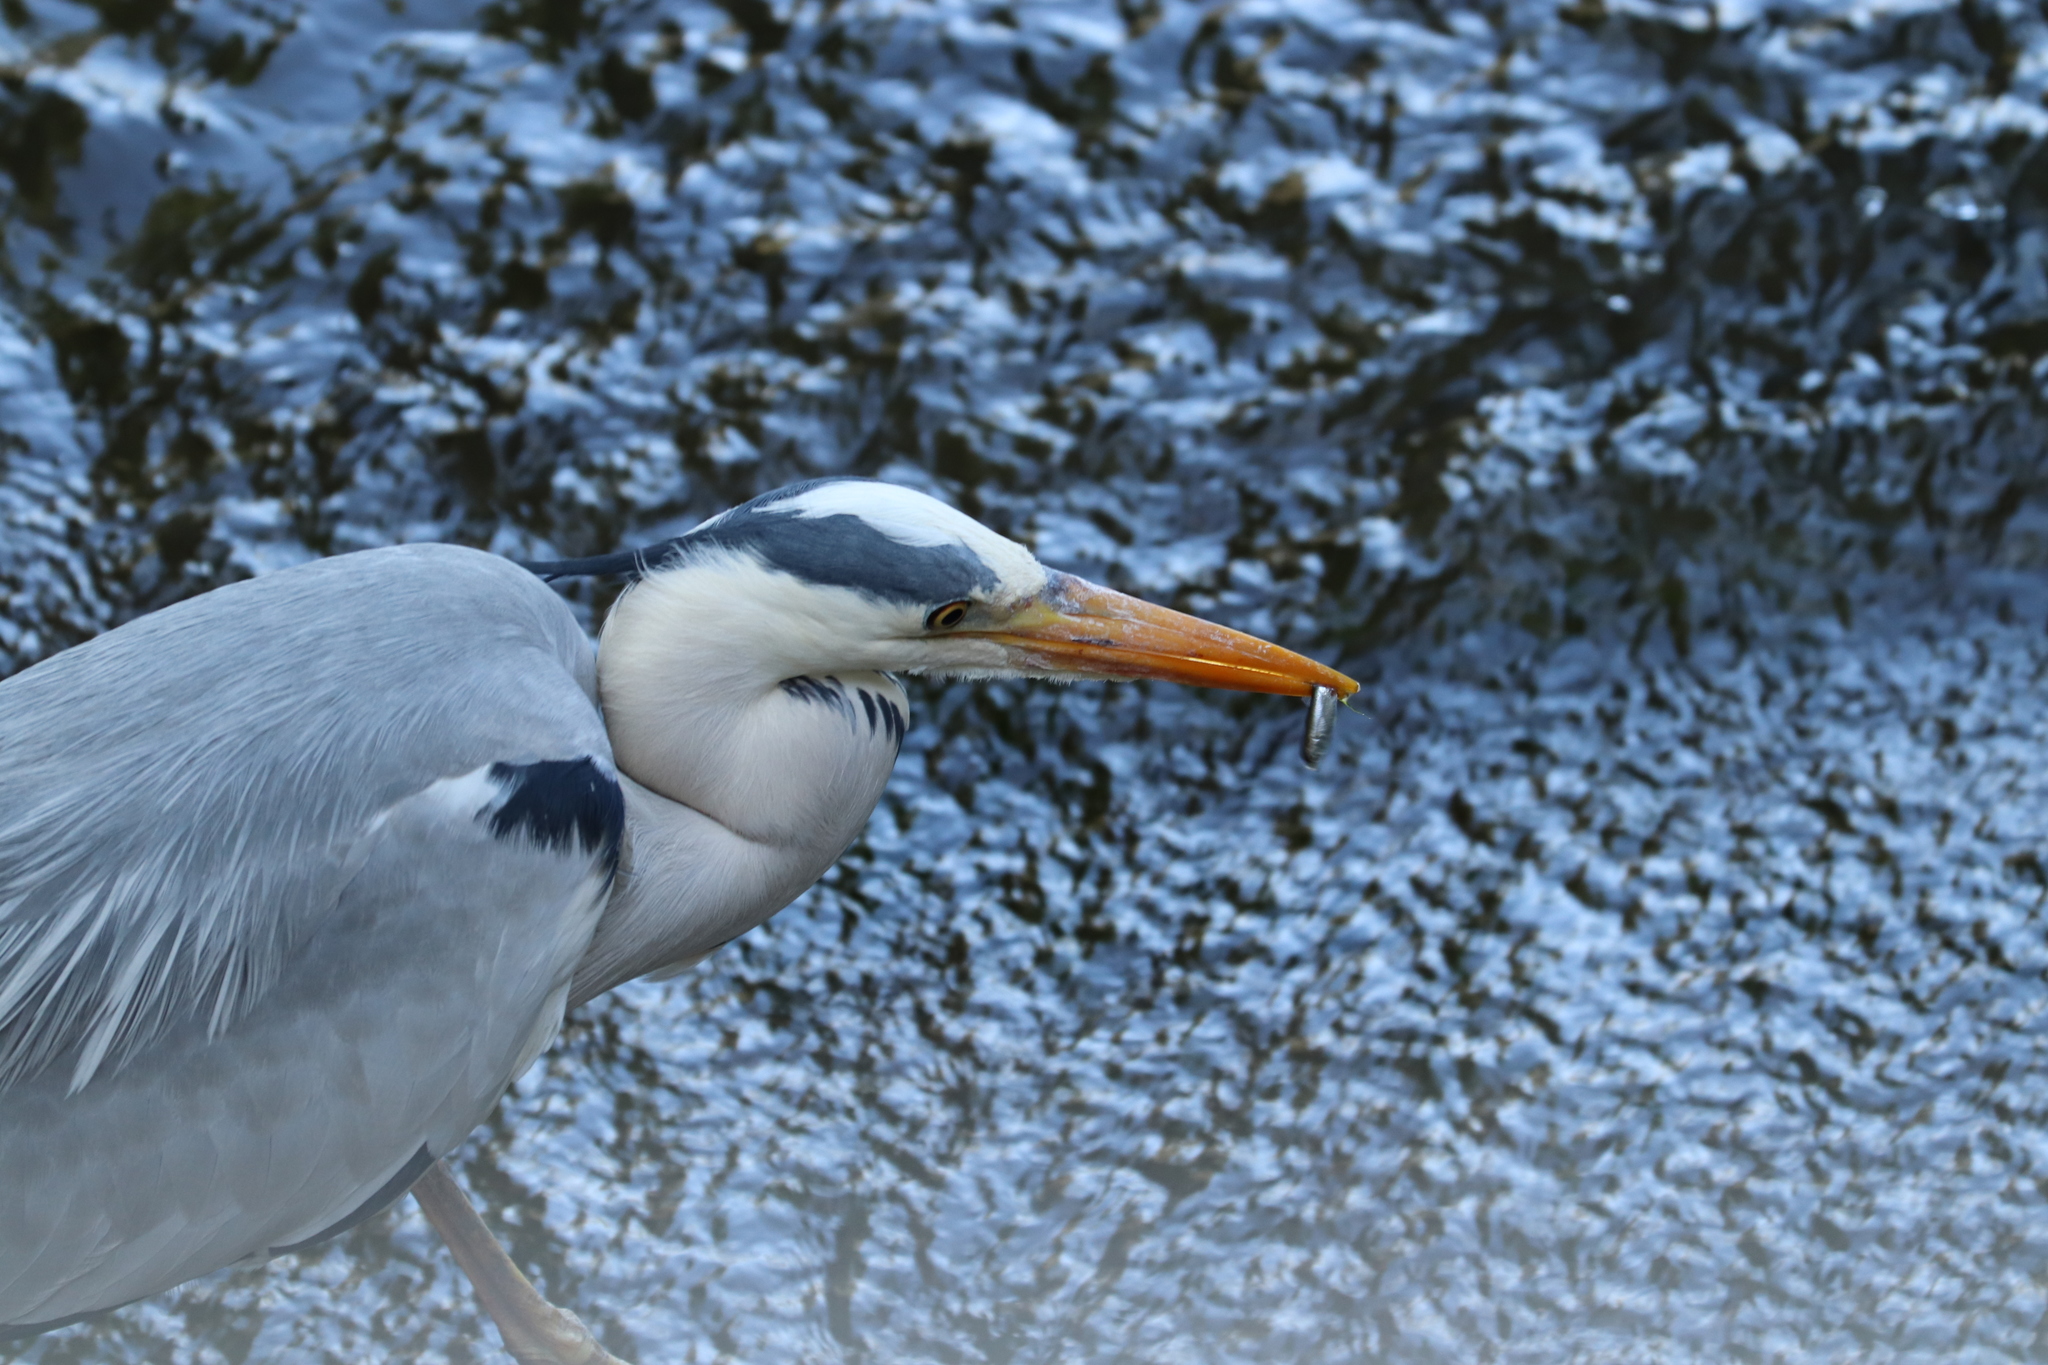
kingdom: Animalia
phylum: Chordata
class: Aves
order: Pelecaniformes
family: Ardeidae
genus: Ardea
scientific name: Ardea cinerea
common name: Grey heron
